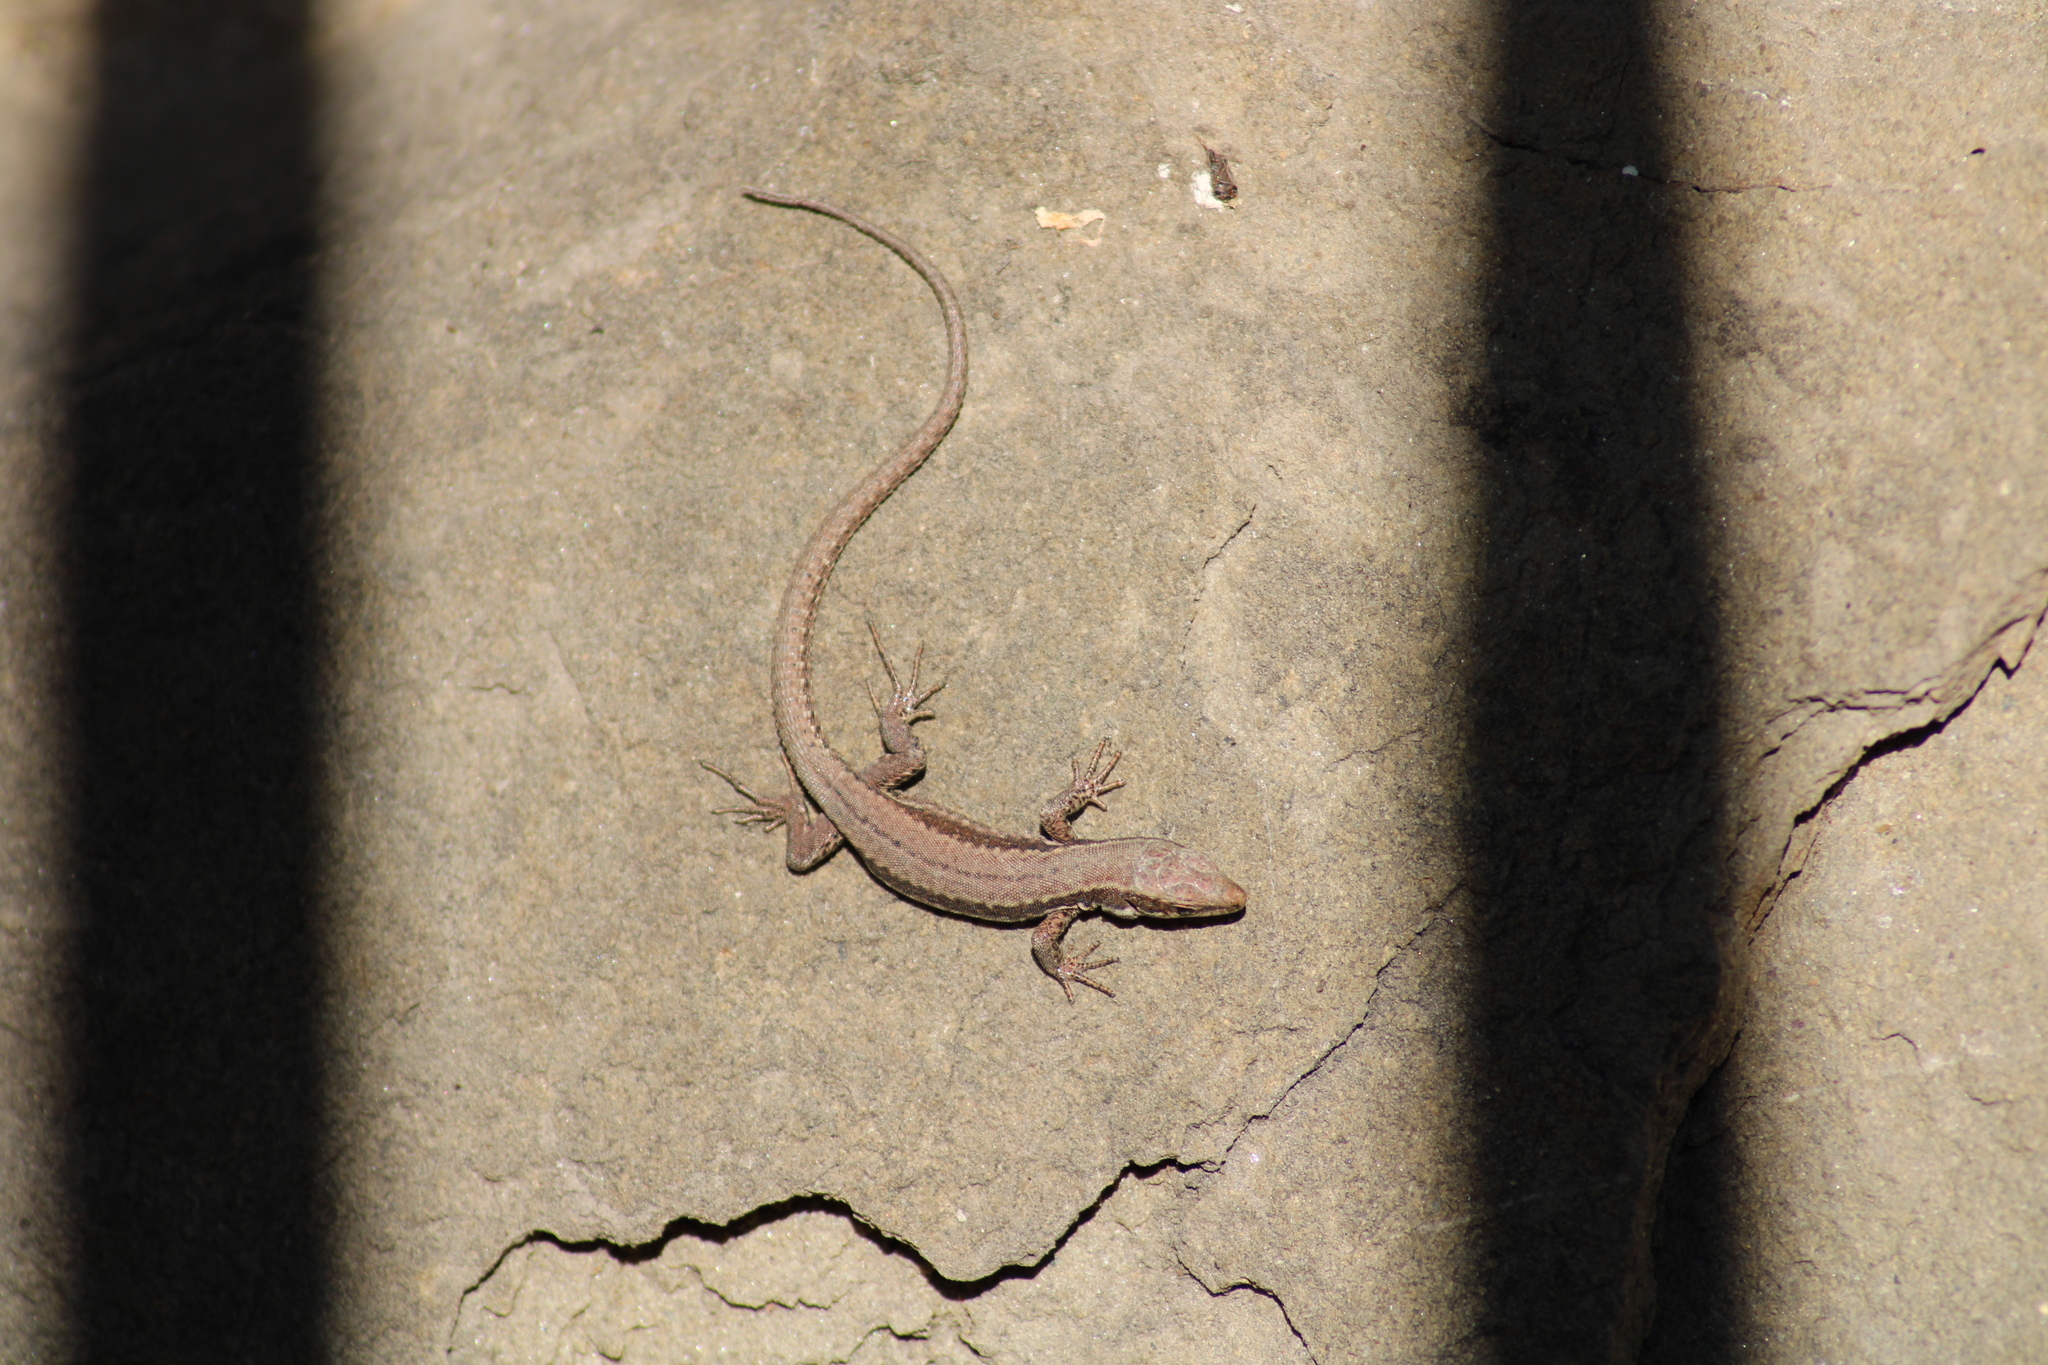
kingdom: Animalia
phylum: Chordata
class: Squamata
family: Lacertidae
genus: Podarcis
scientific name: Podarcis muralis
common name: Common wall lizard
